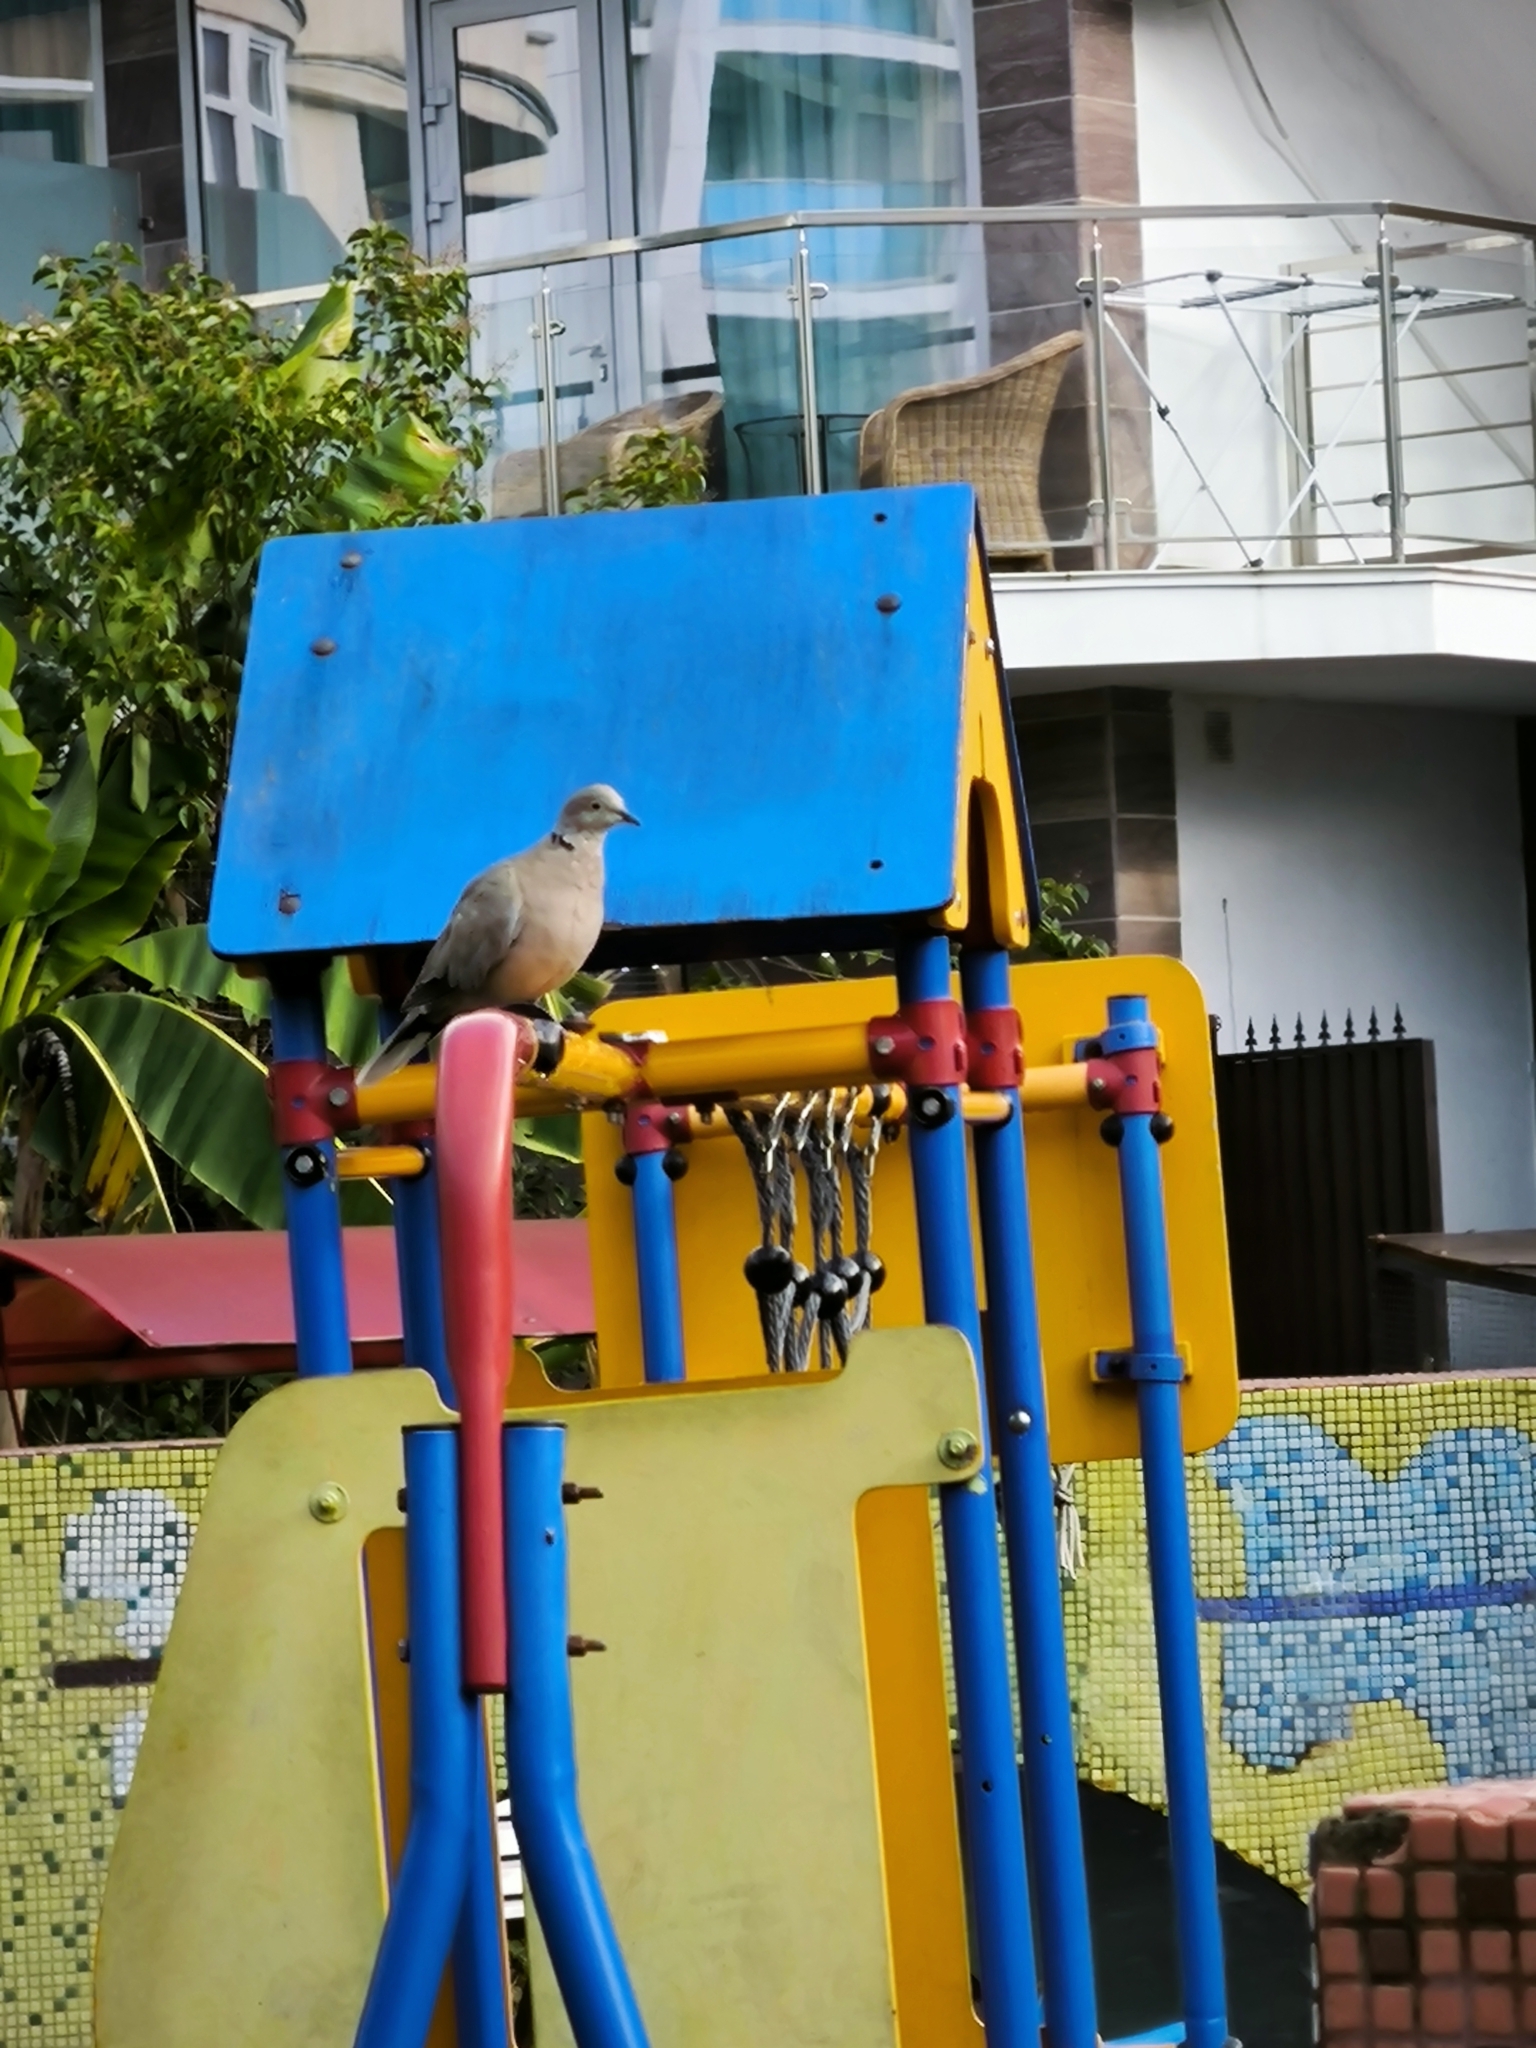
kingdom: Animalia
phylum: Chordata
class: Aves
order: Columbiformes
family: Columbidae
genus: Streptopelia
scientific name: Streptopelia decaocto
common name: Eurasian collared dove
